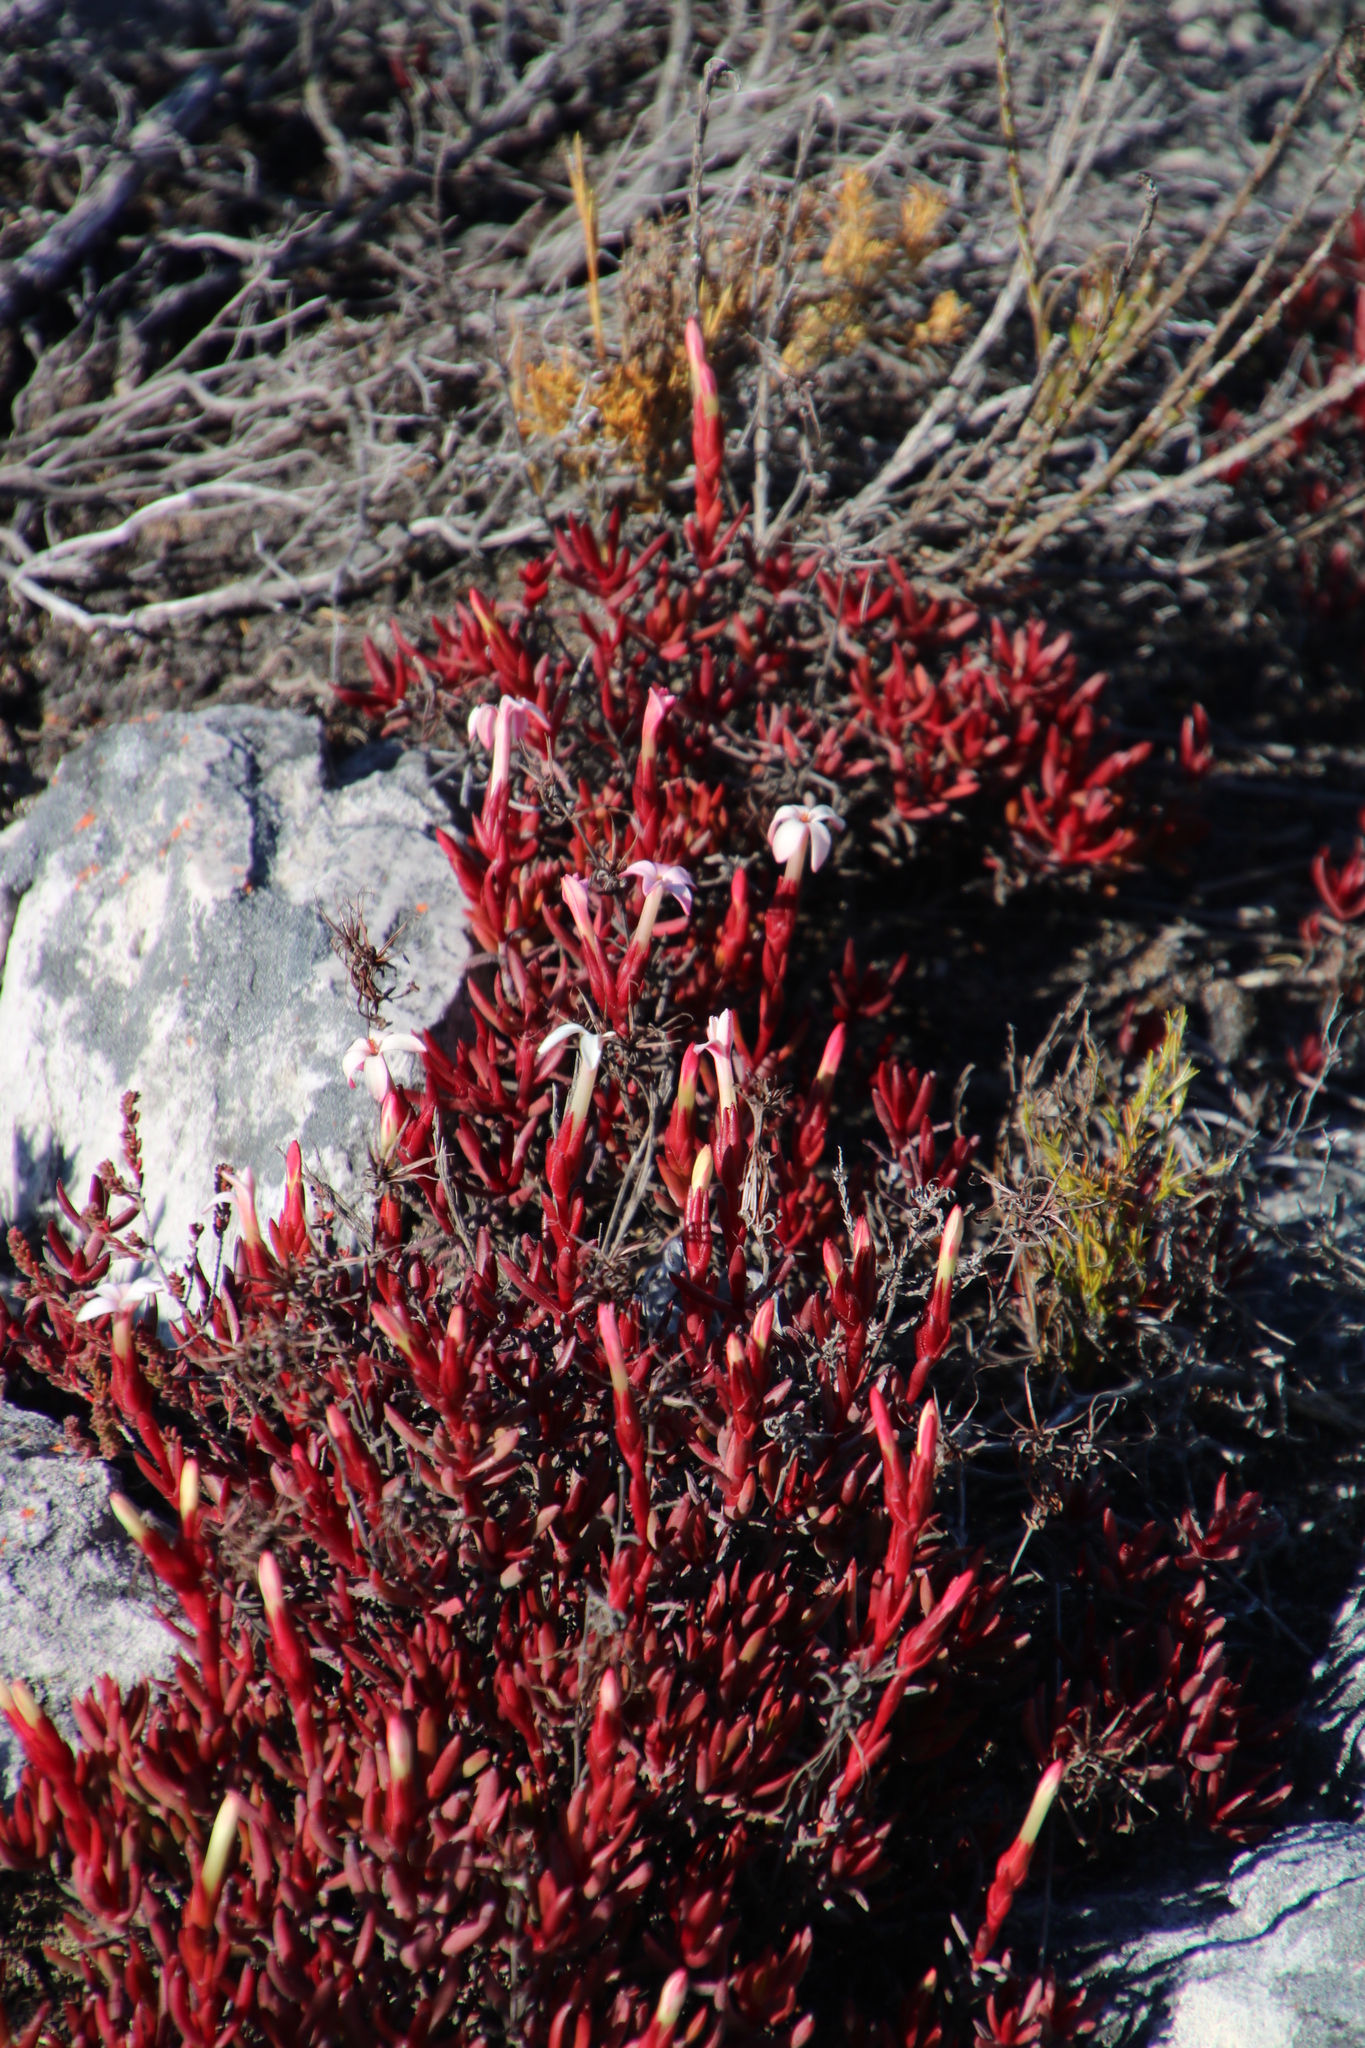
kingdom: Plantae
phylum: Tracheophyta
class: Magnoliopsida
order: Saxifragales
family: Crassulaceae
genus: Crassula
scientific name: Crassula fascicularis
